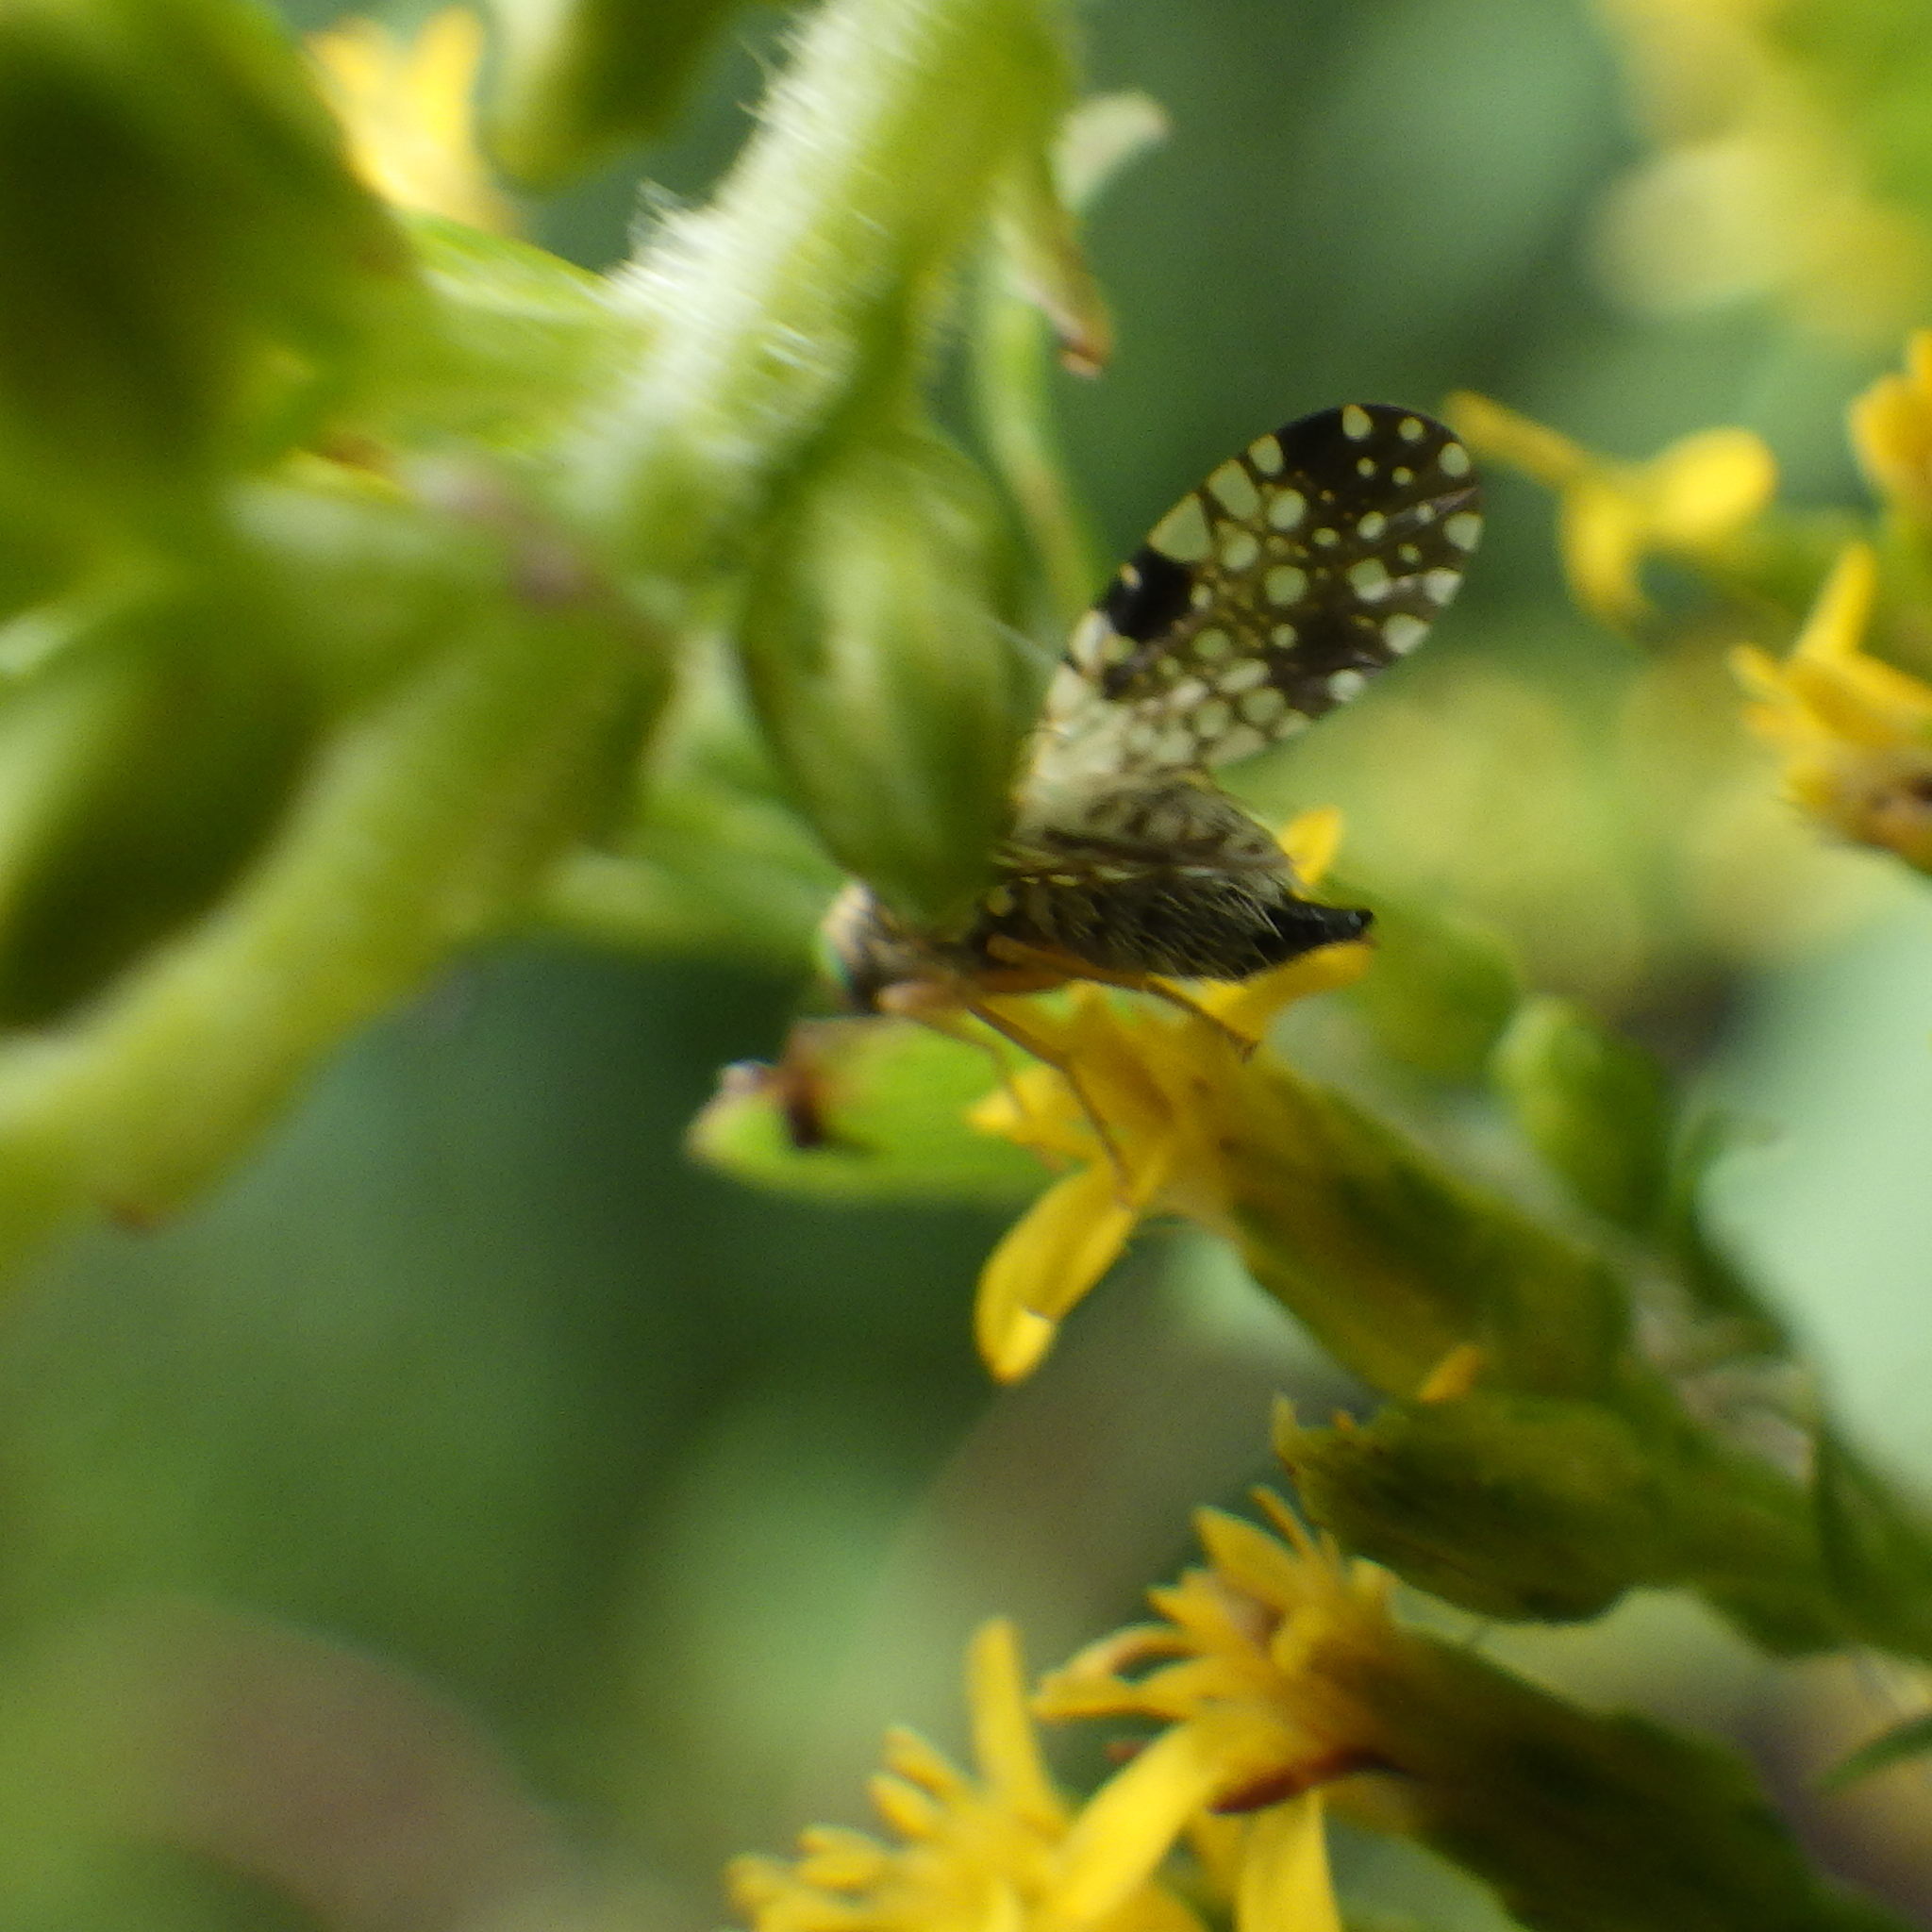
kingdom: Animalia
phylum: Arthropoda
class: Insecta
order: Diptera
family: Tephritidae
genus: Campiglossa
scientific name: Campiglossa albiceps
